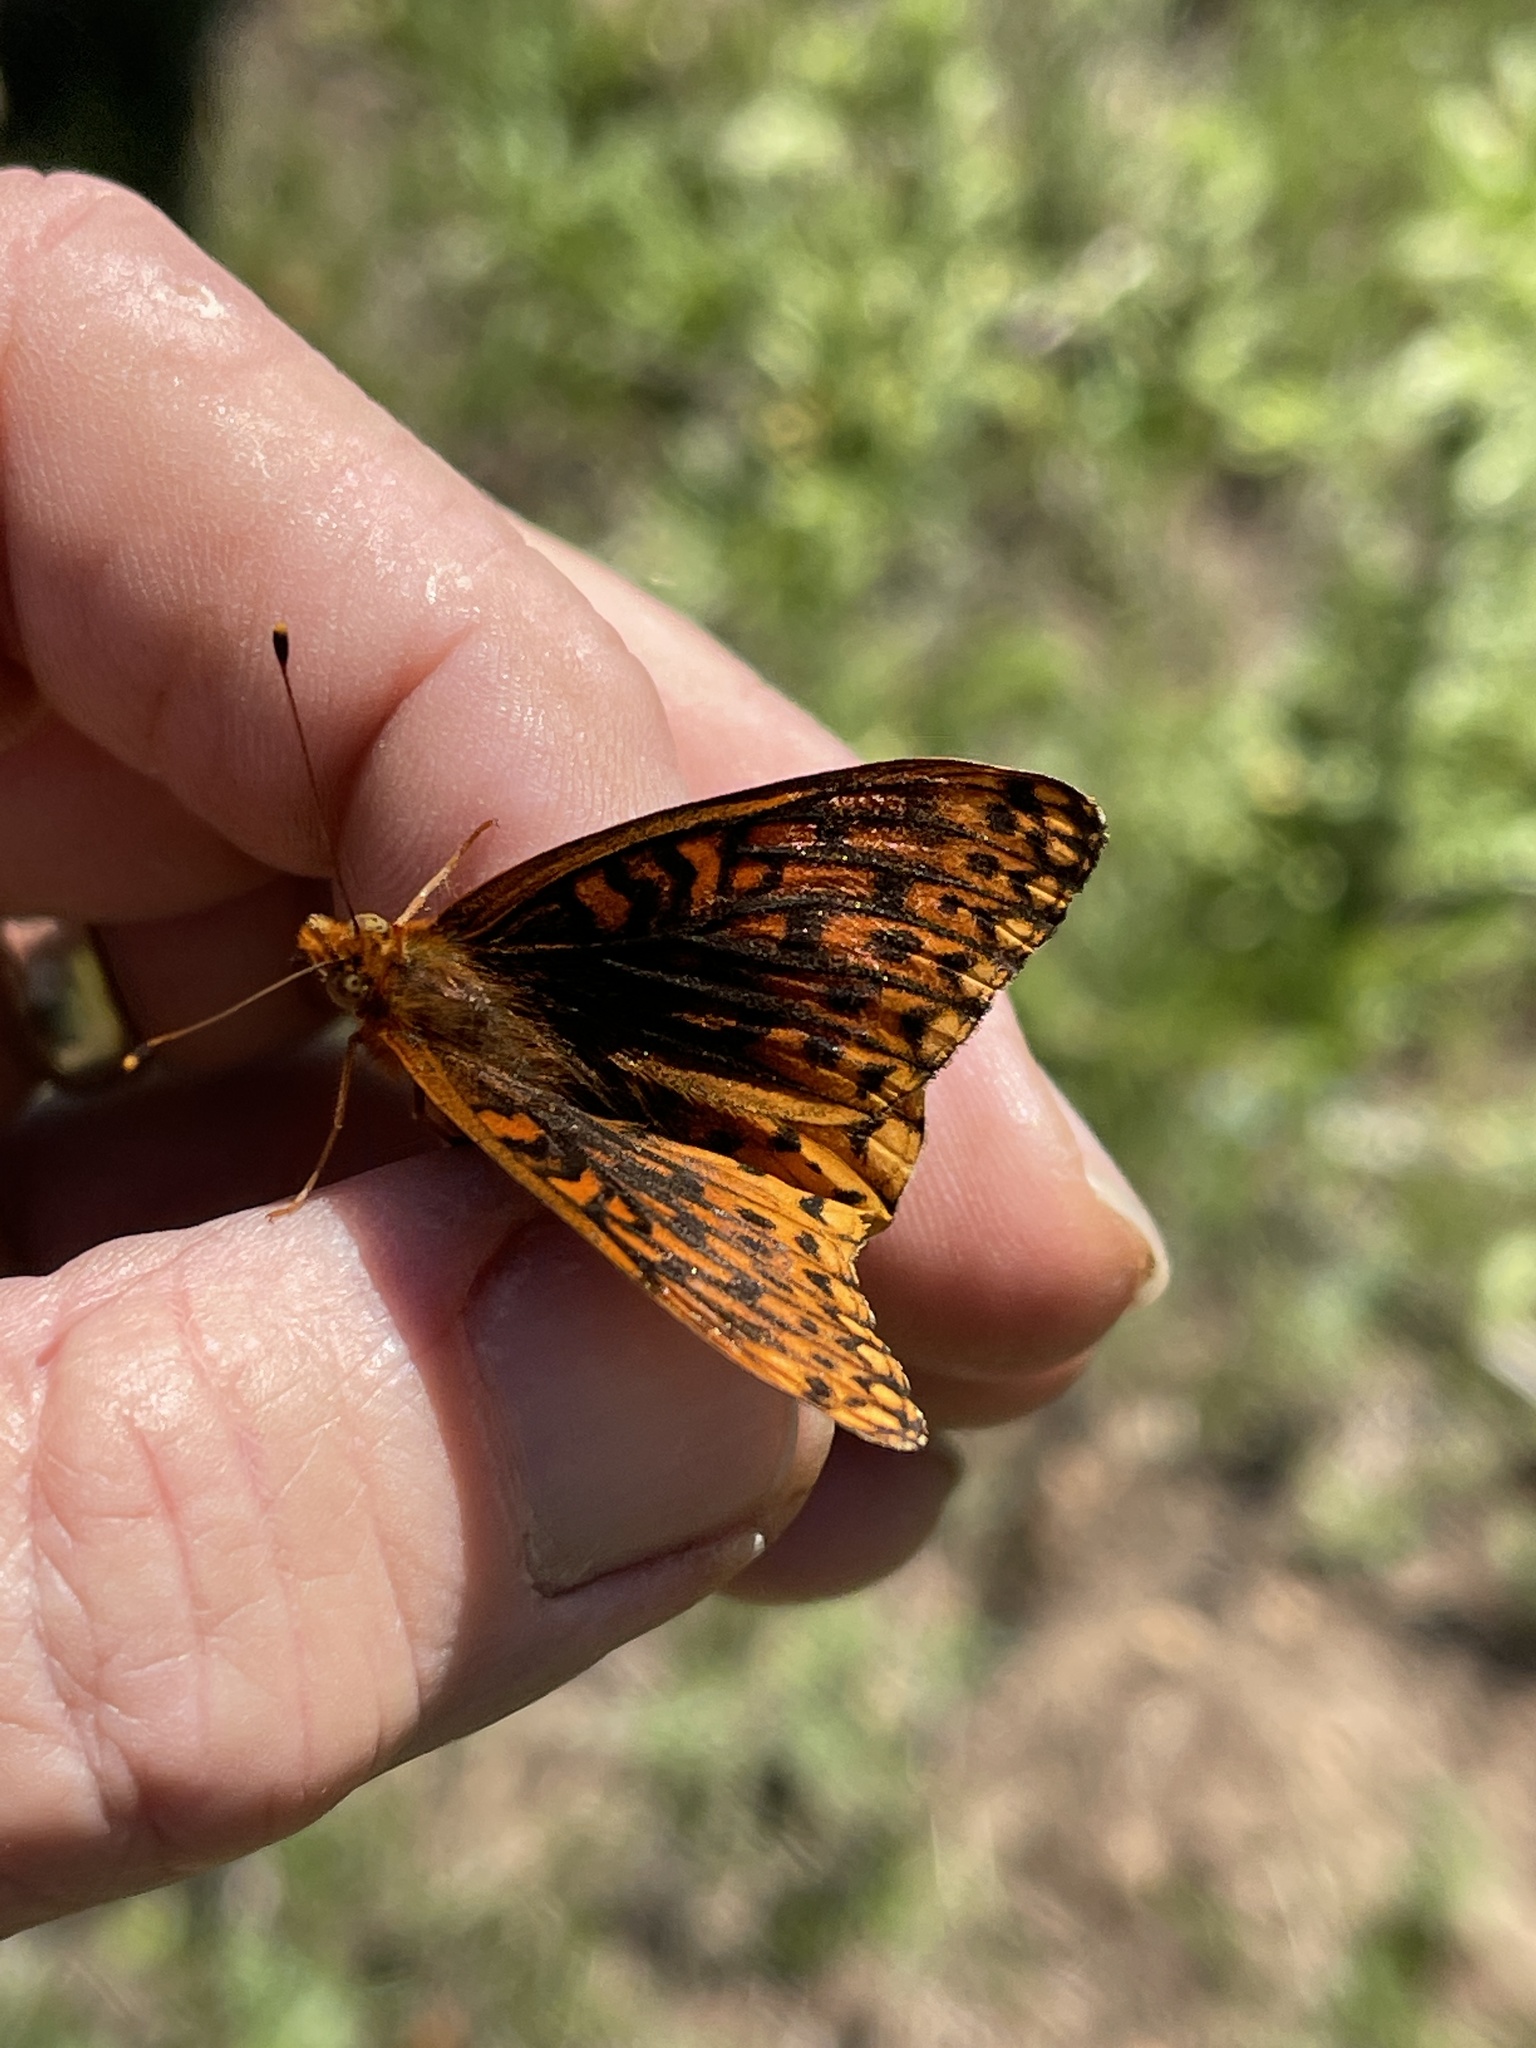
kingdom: Animalia
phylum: Arthropoda
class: Insecta
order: Lepidoptera
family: Nymphalidae
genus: Speyeria
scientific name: Speyeria atlantis
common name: Atlantis fritillary
